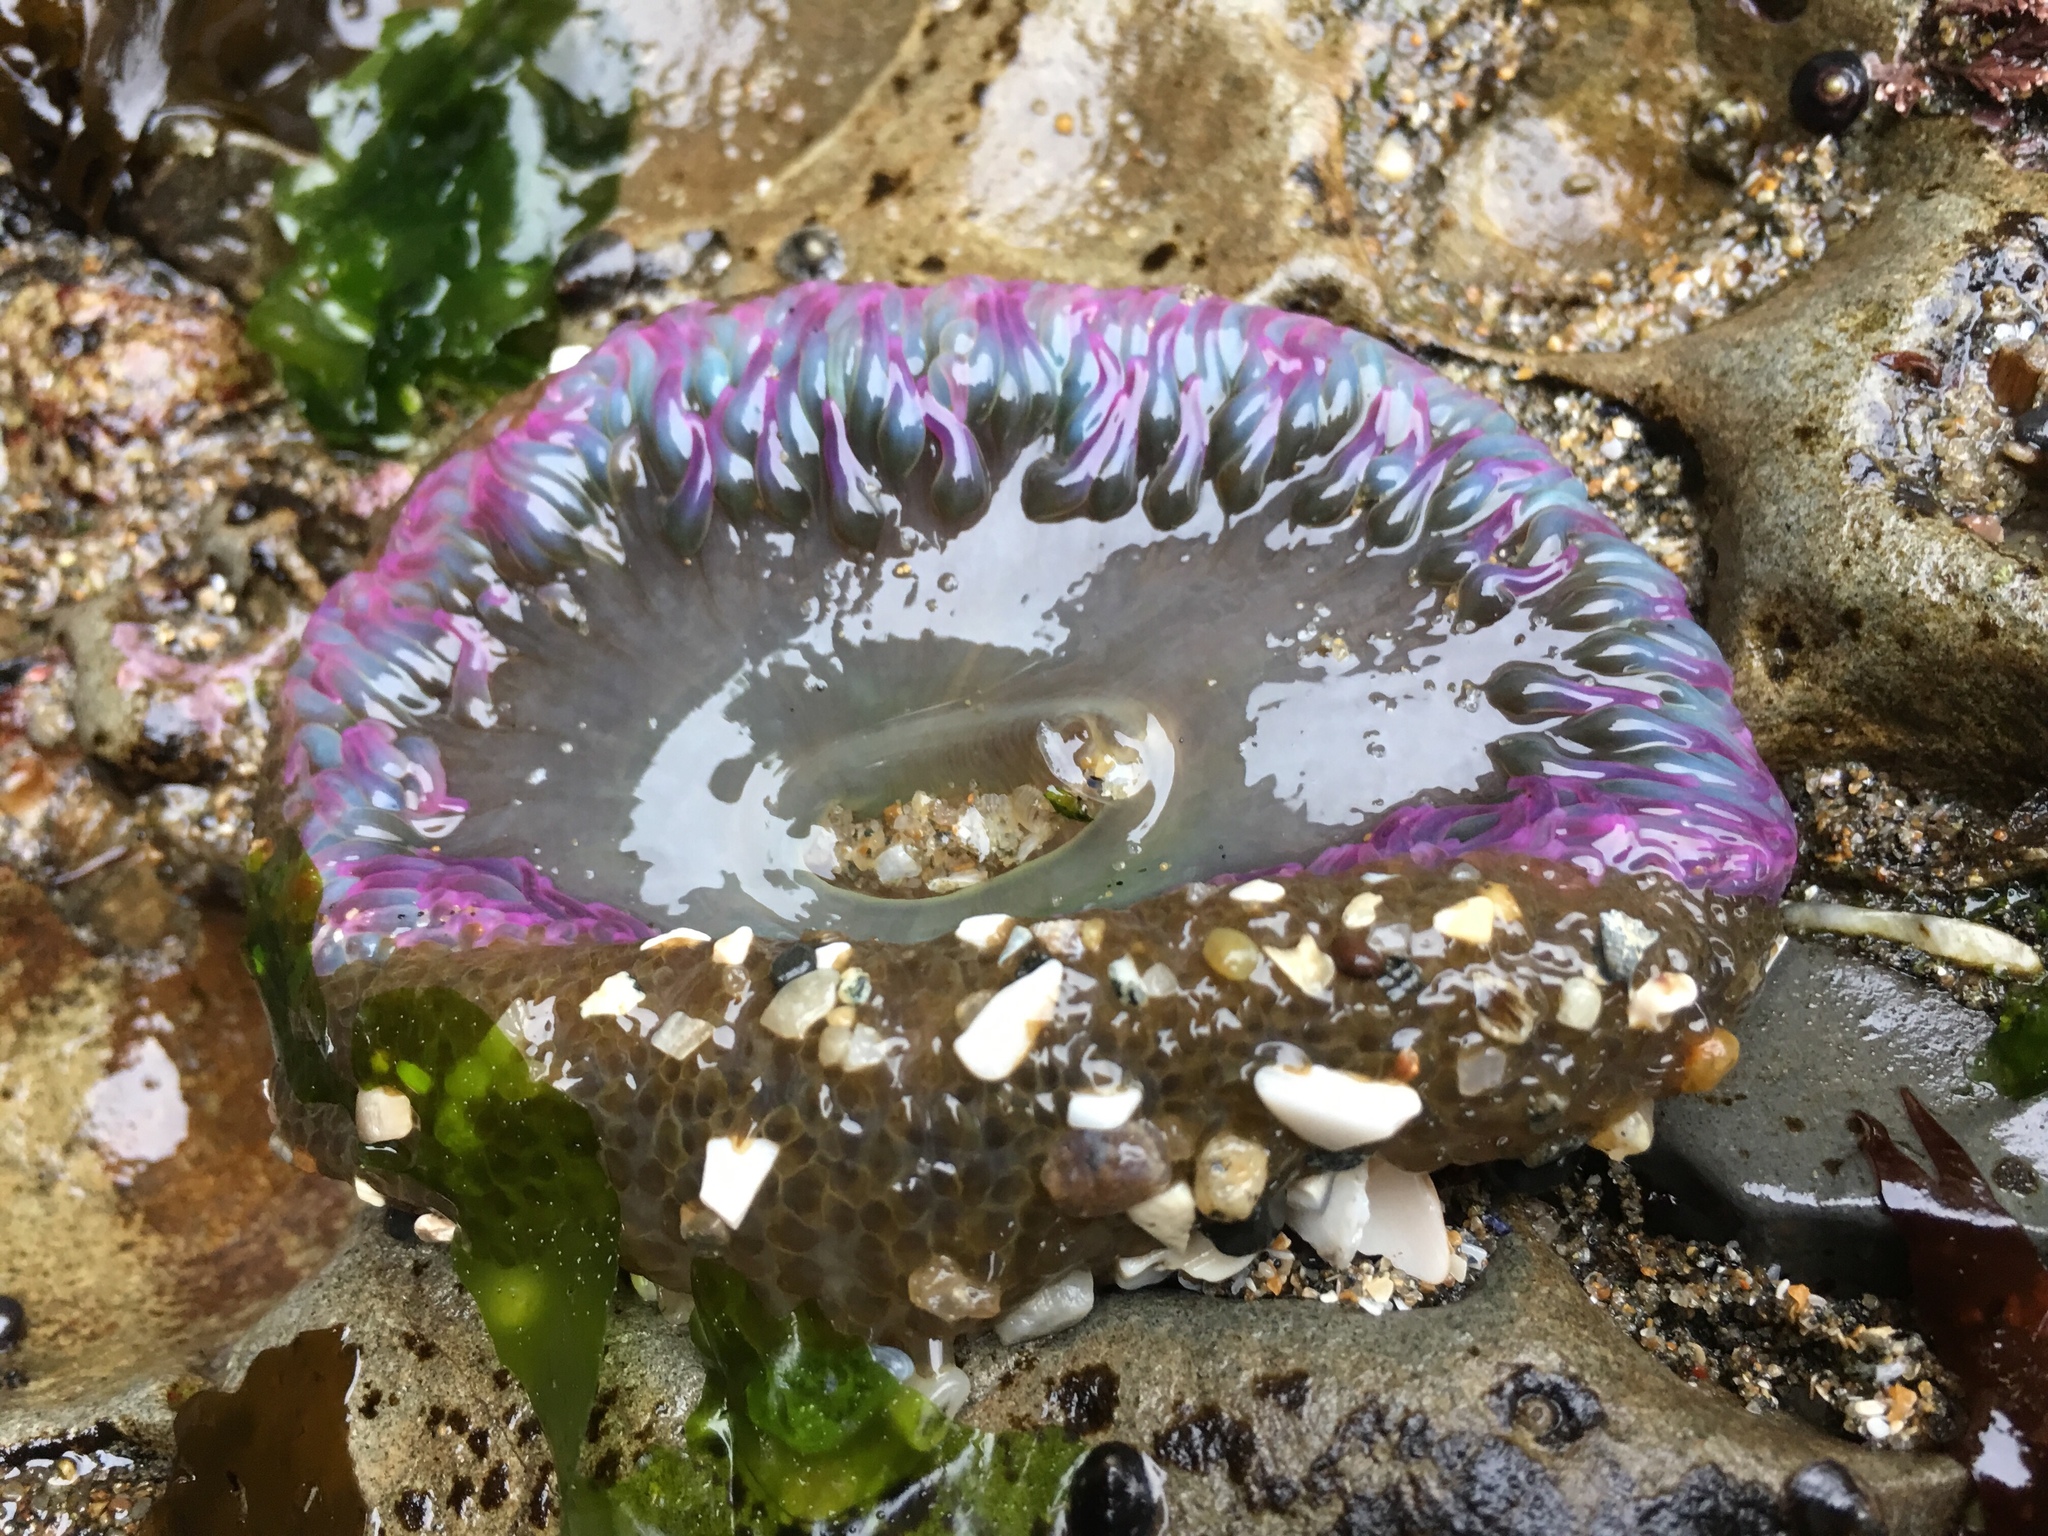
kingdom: Animalia
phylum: Cnidaria
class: Anthozoa
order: Actiniaria
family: Actiniidae
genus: Anthopleura
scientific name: Anthopleura sola
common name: Sun anemone
